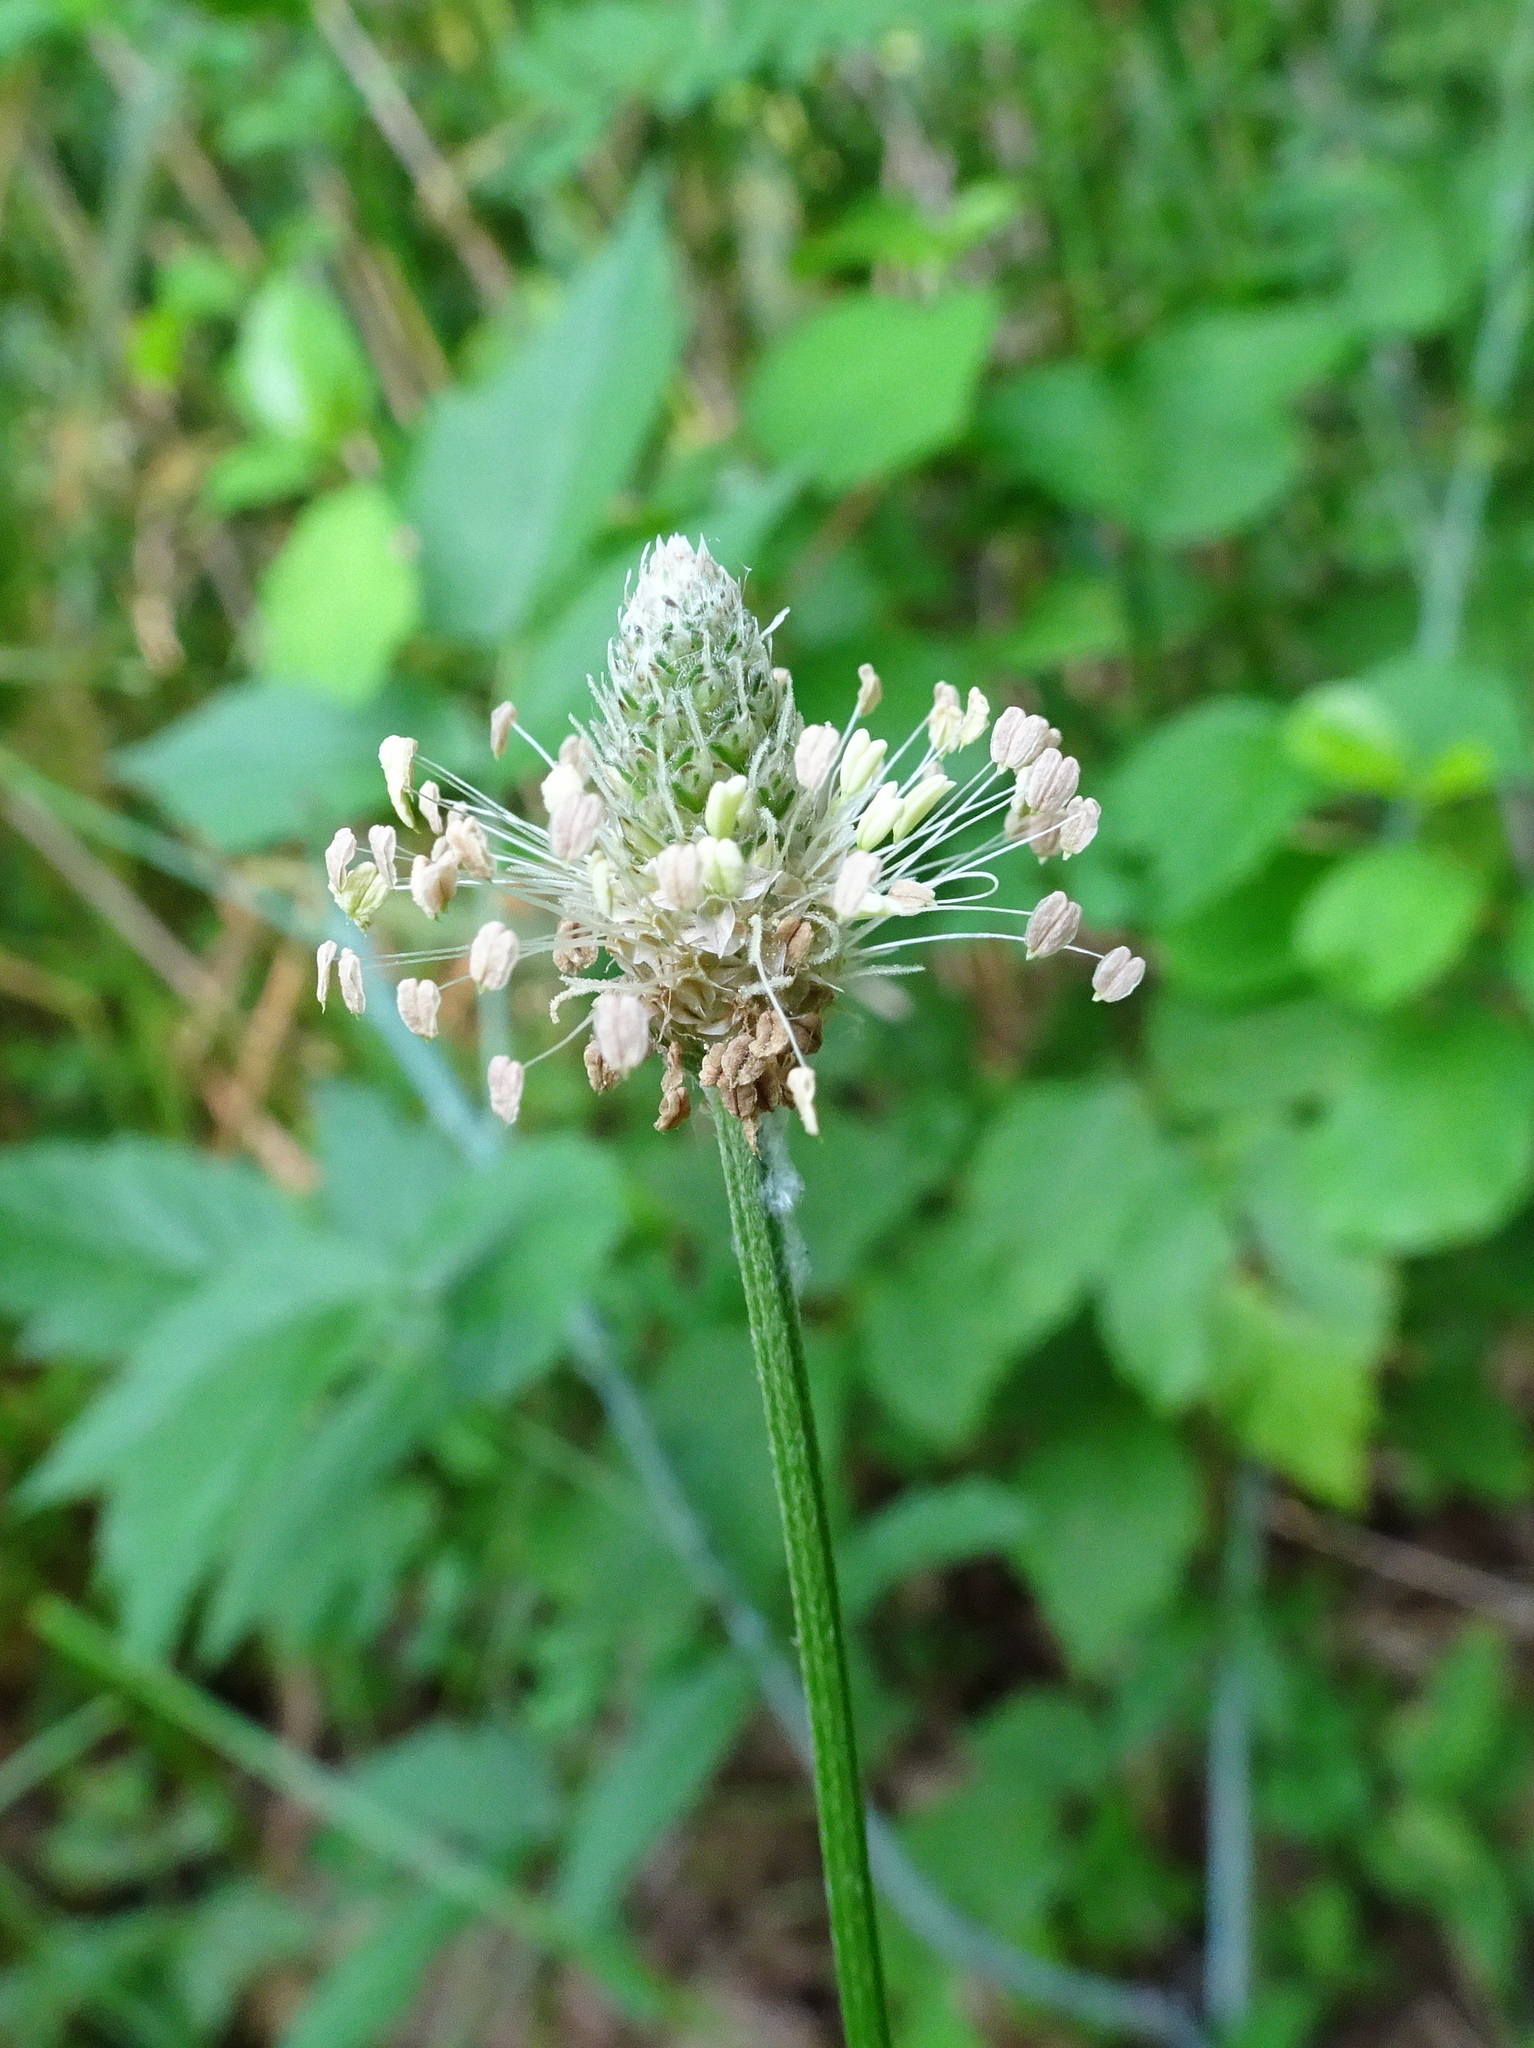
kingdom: Plantae
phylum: Tracheophyta
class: Magnoliopsida
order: Lamiales
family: Plantaginaceae
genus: Plantago
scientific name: Plantago lanceolata
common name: Ribwort plantain
